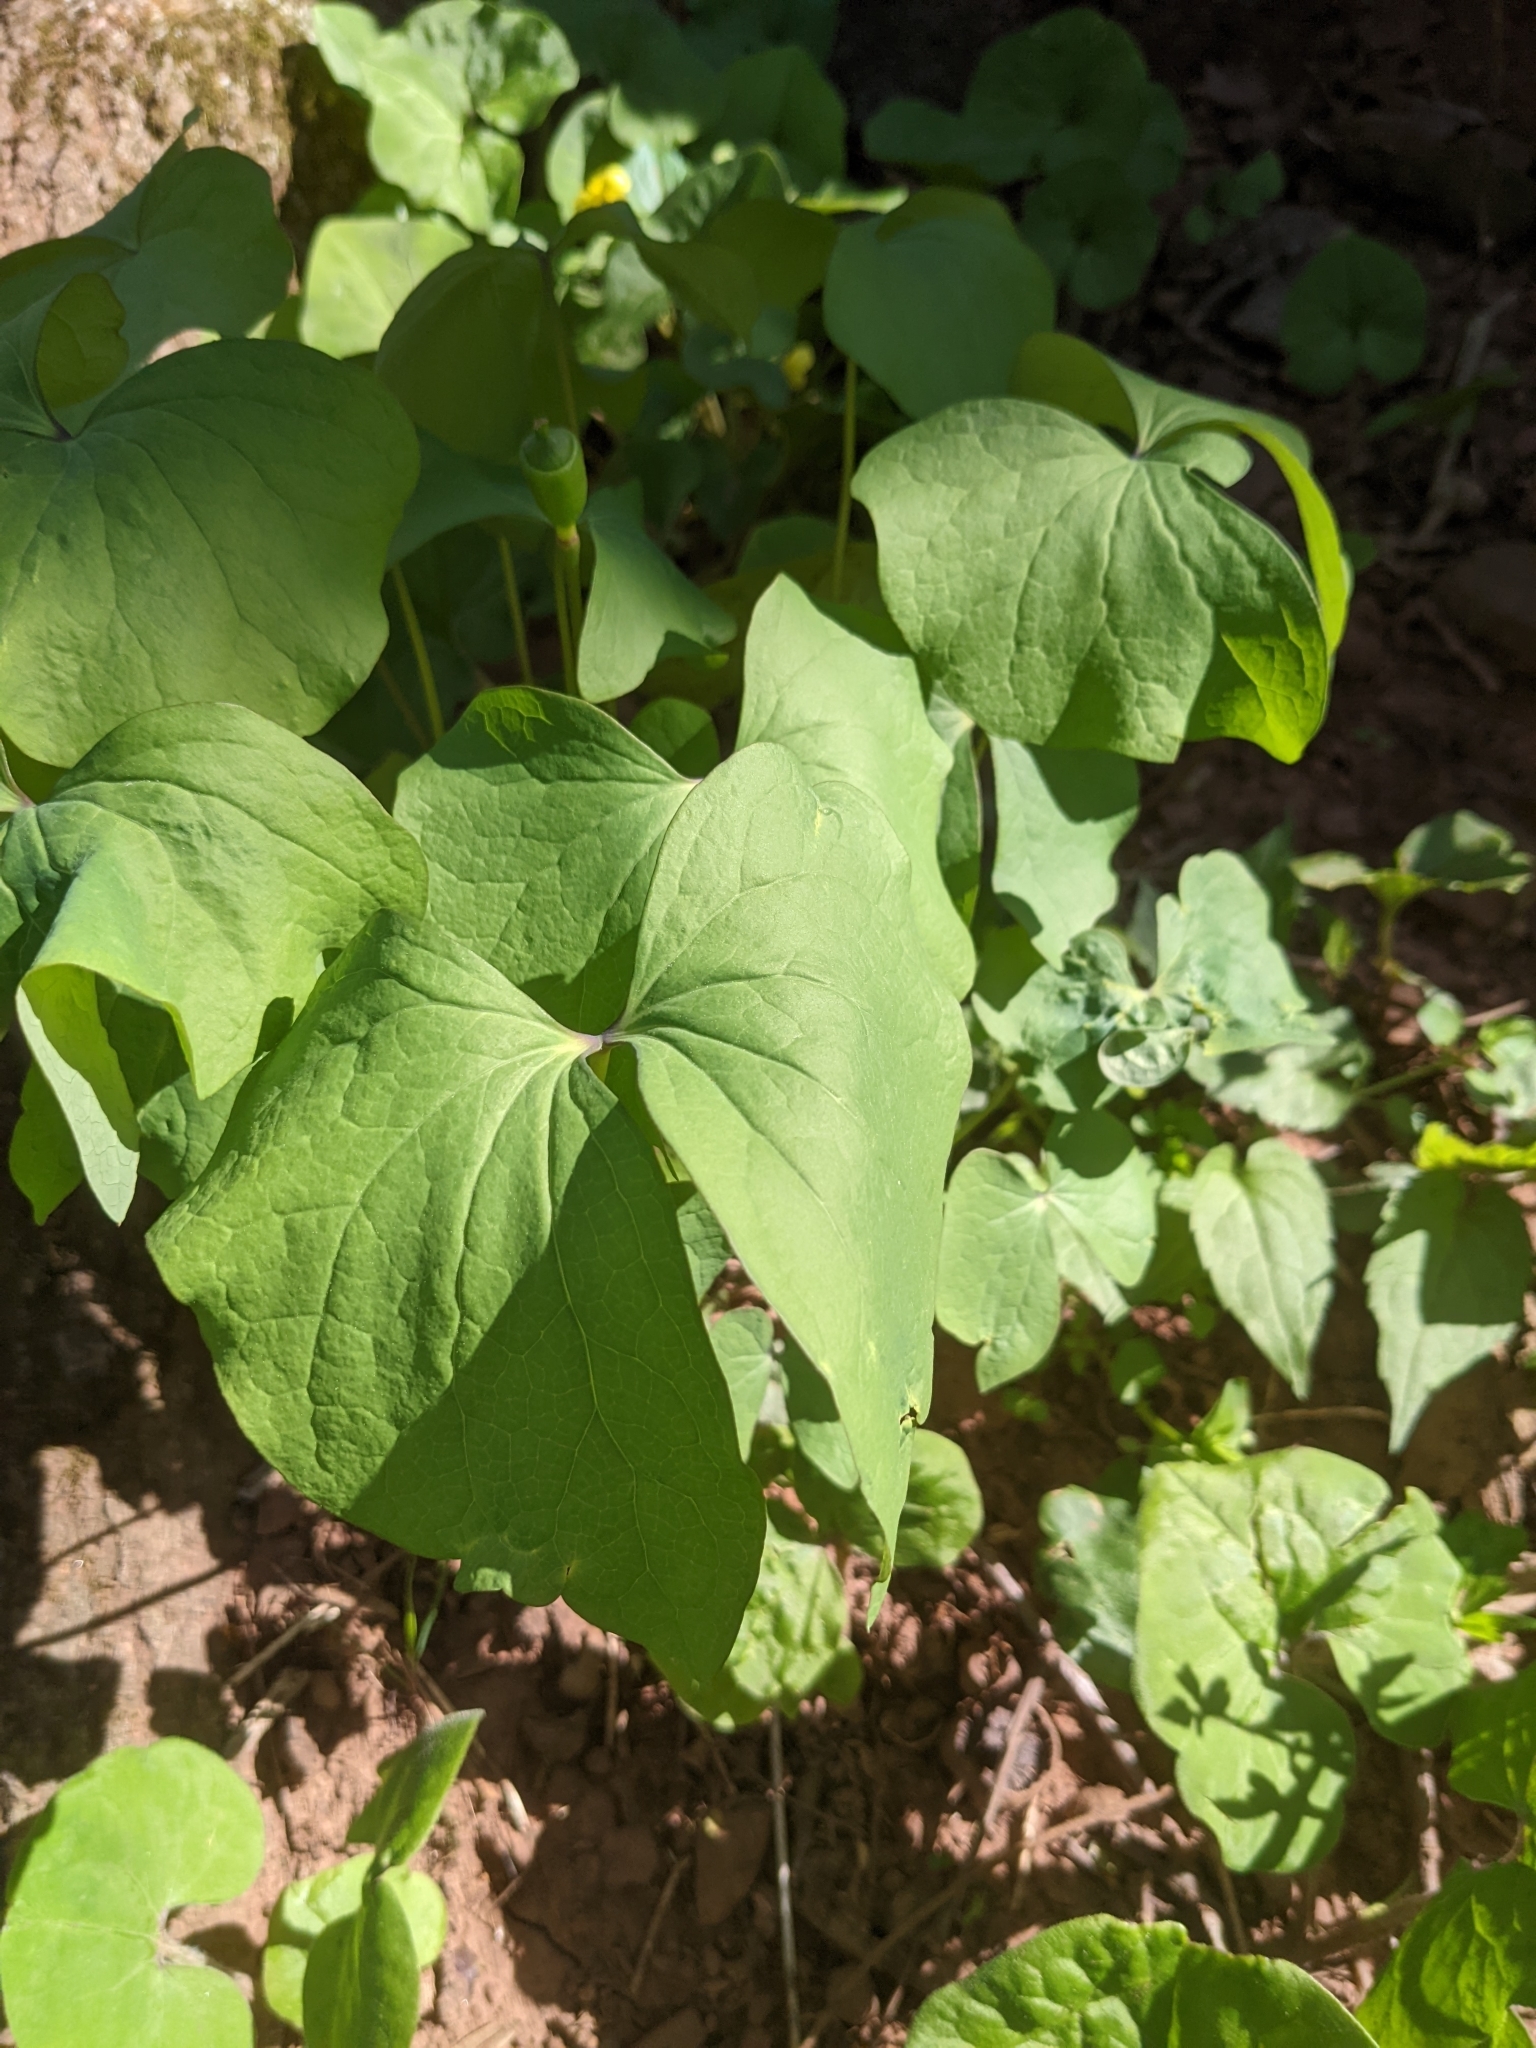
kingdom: Plantae
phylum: Tracheophyta
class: Magnoliopsida
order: Ranunculales
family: Berberidaceae
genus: Jeffersonia
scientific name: Jeffersonia diphylla
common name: Rheumatism-root
